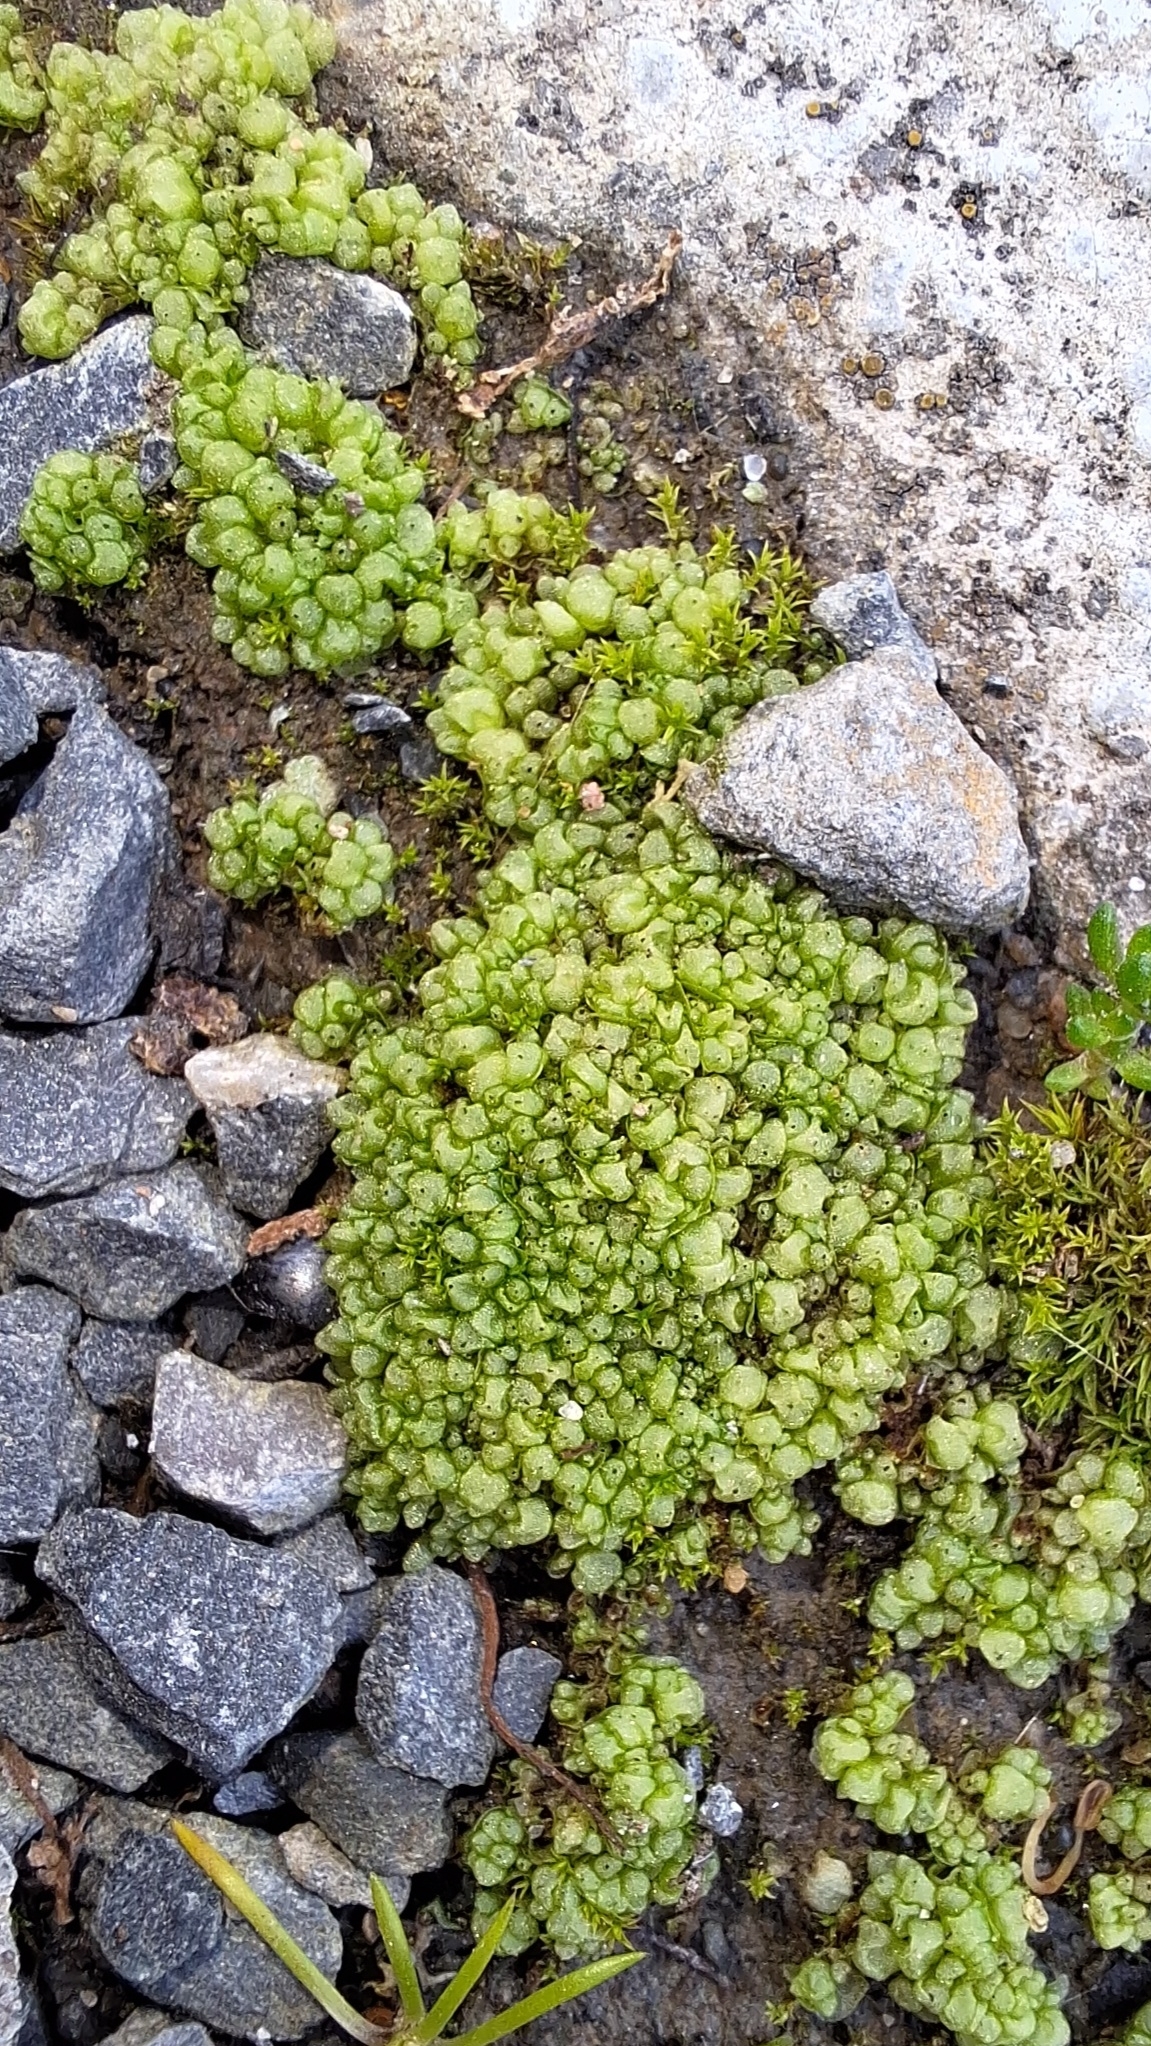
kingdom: Plantae
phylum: Marchantiophyta
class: Marchantiopsida
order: Sphaerocarpales
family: Sphaerocarpaceae
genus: Sphaerocarpos
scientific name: Sphaerocarpos texanus
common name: Texas balloonwort
